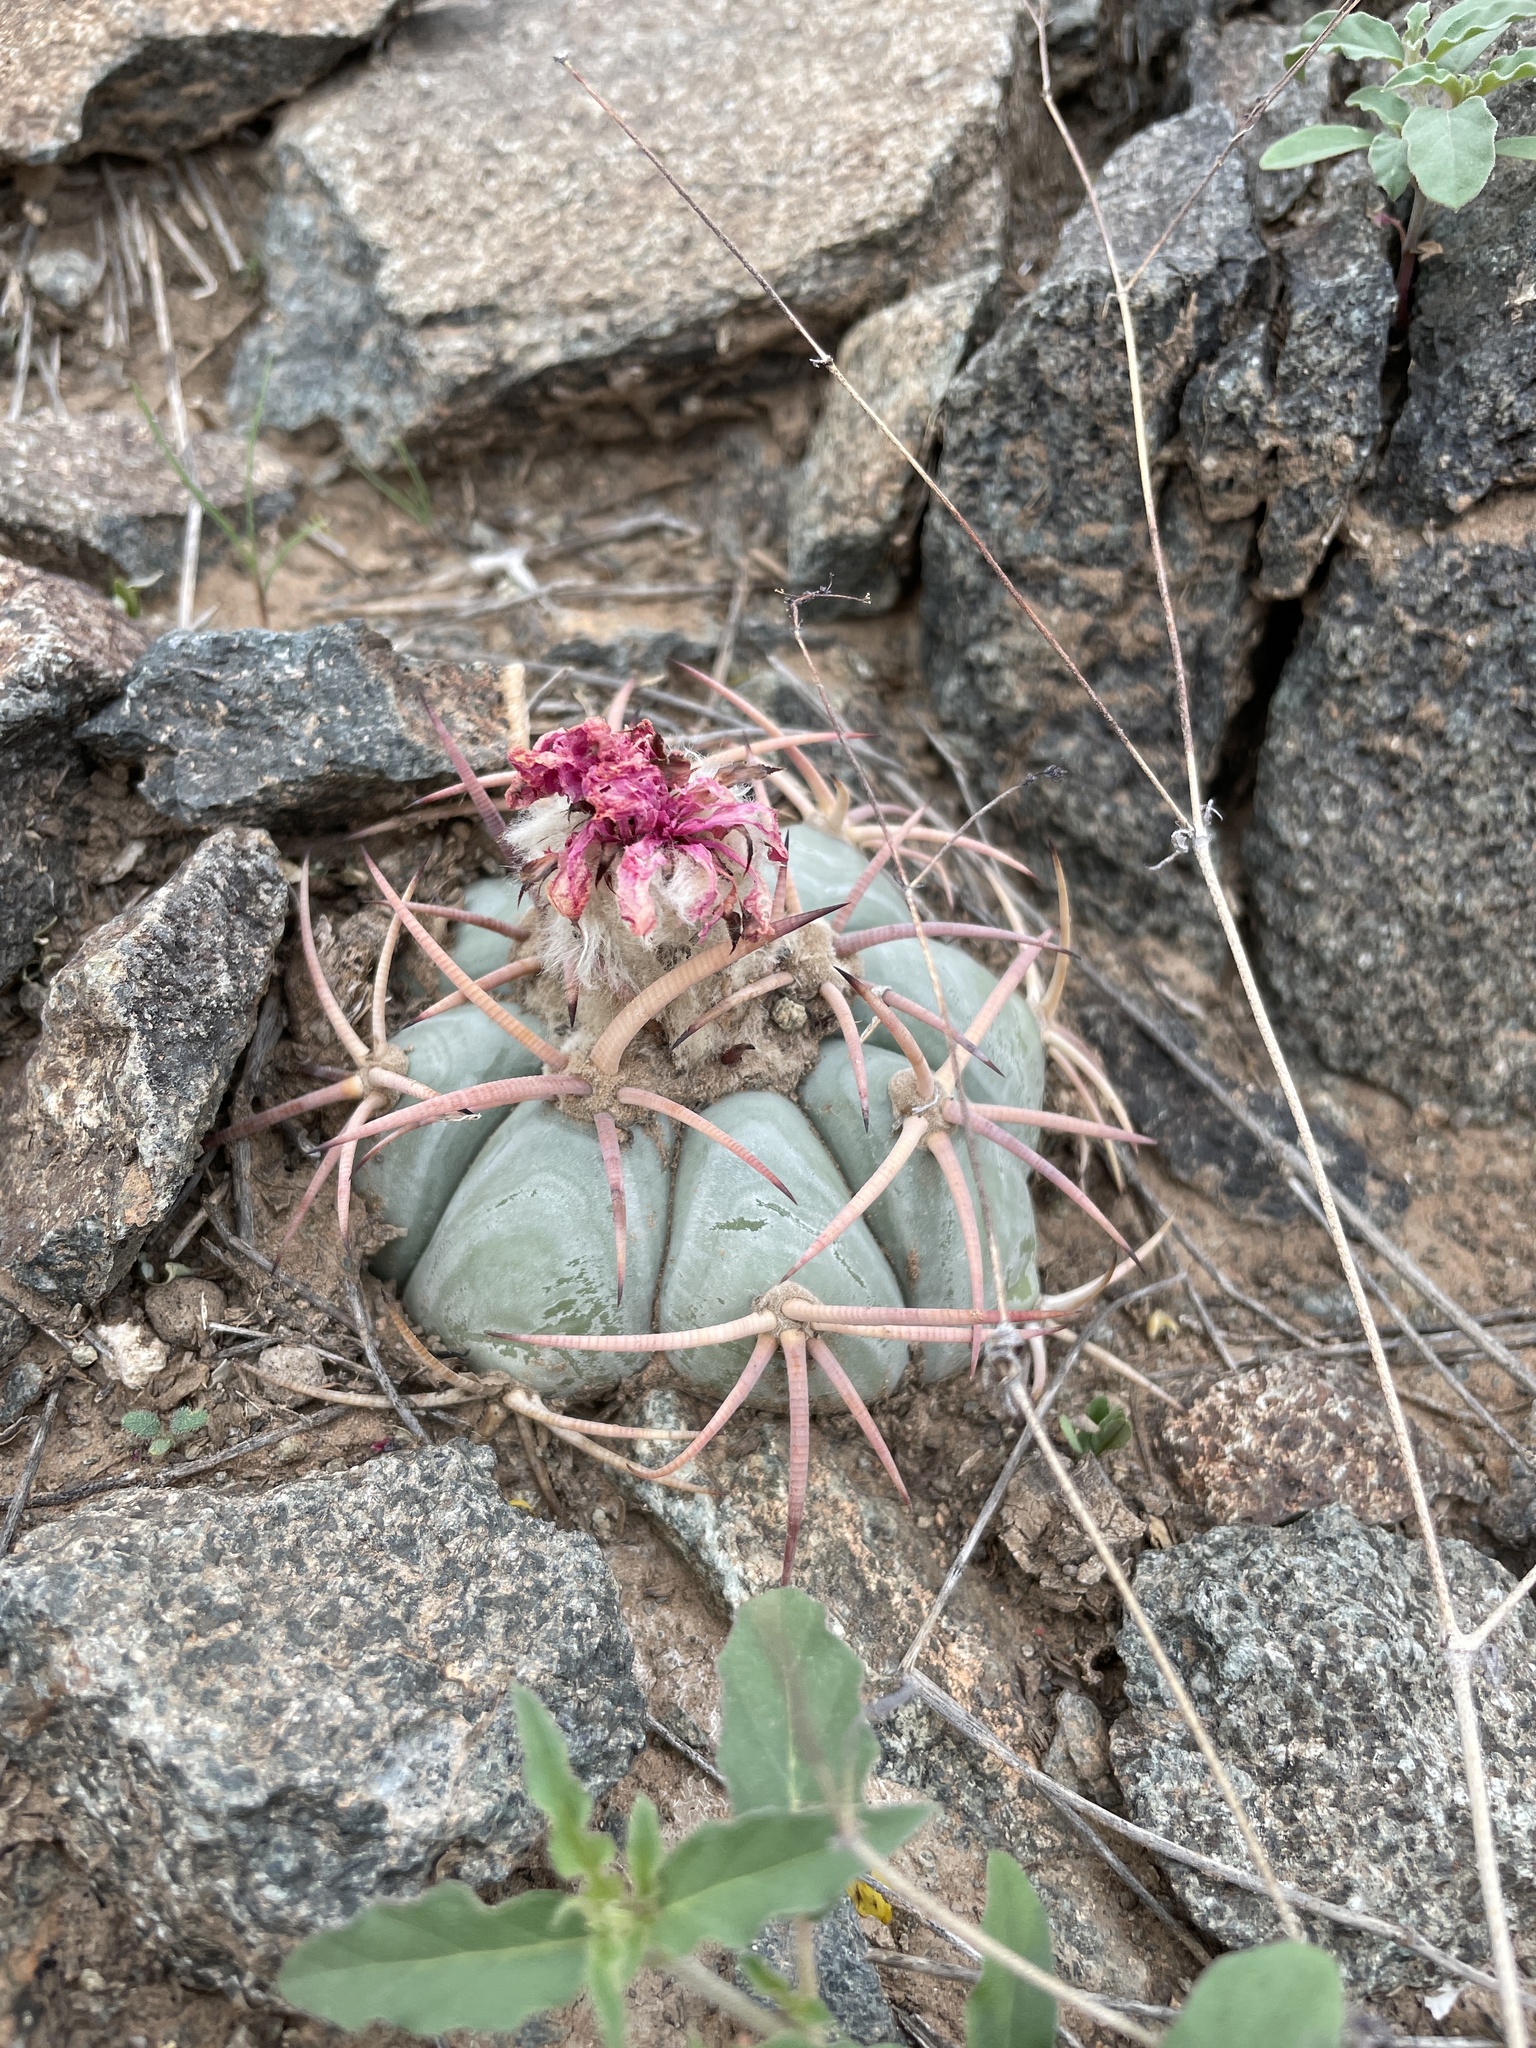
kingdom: Plantae
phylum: Tracheophyta
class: Magnoliopsida
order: Caryophyllales
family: Cactaceae
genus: Echinocactus
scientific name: Echinocactus horizonthalonius
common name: Devilshead
